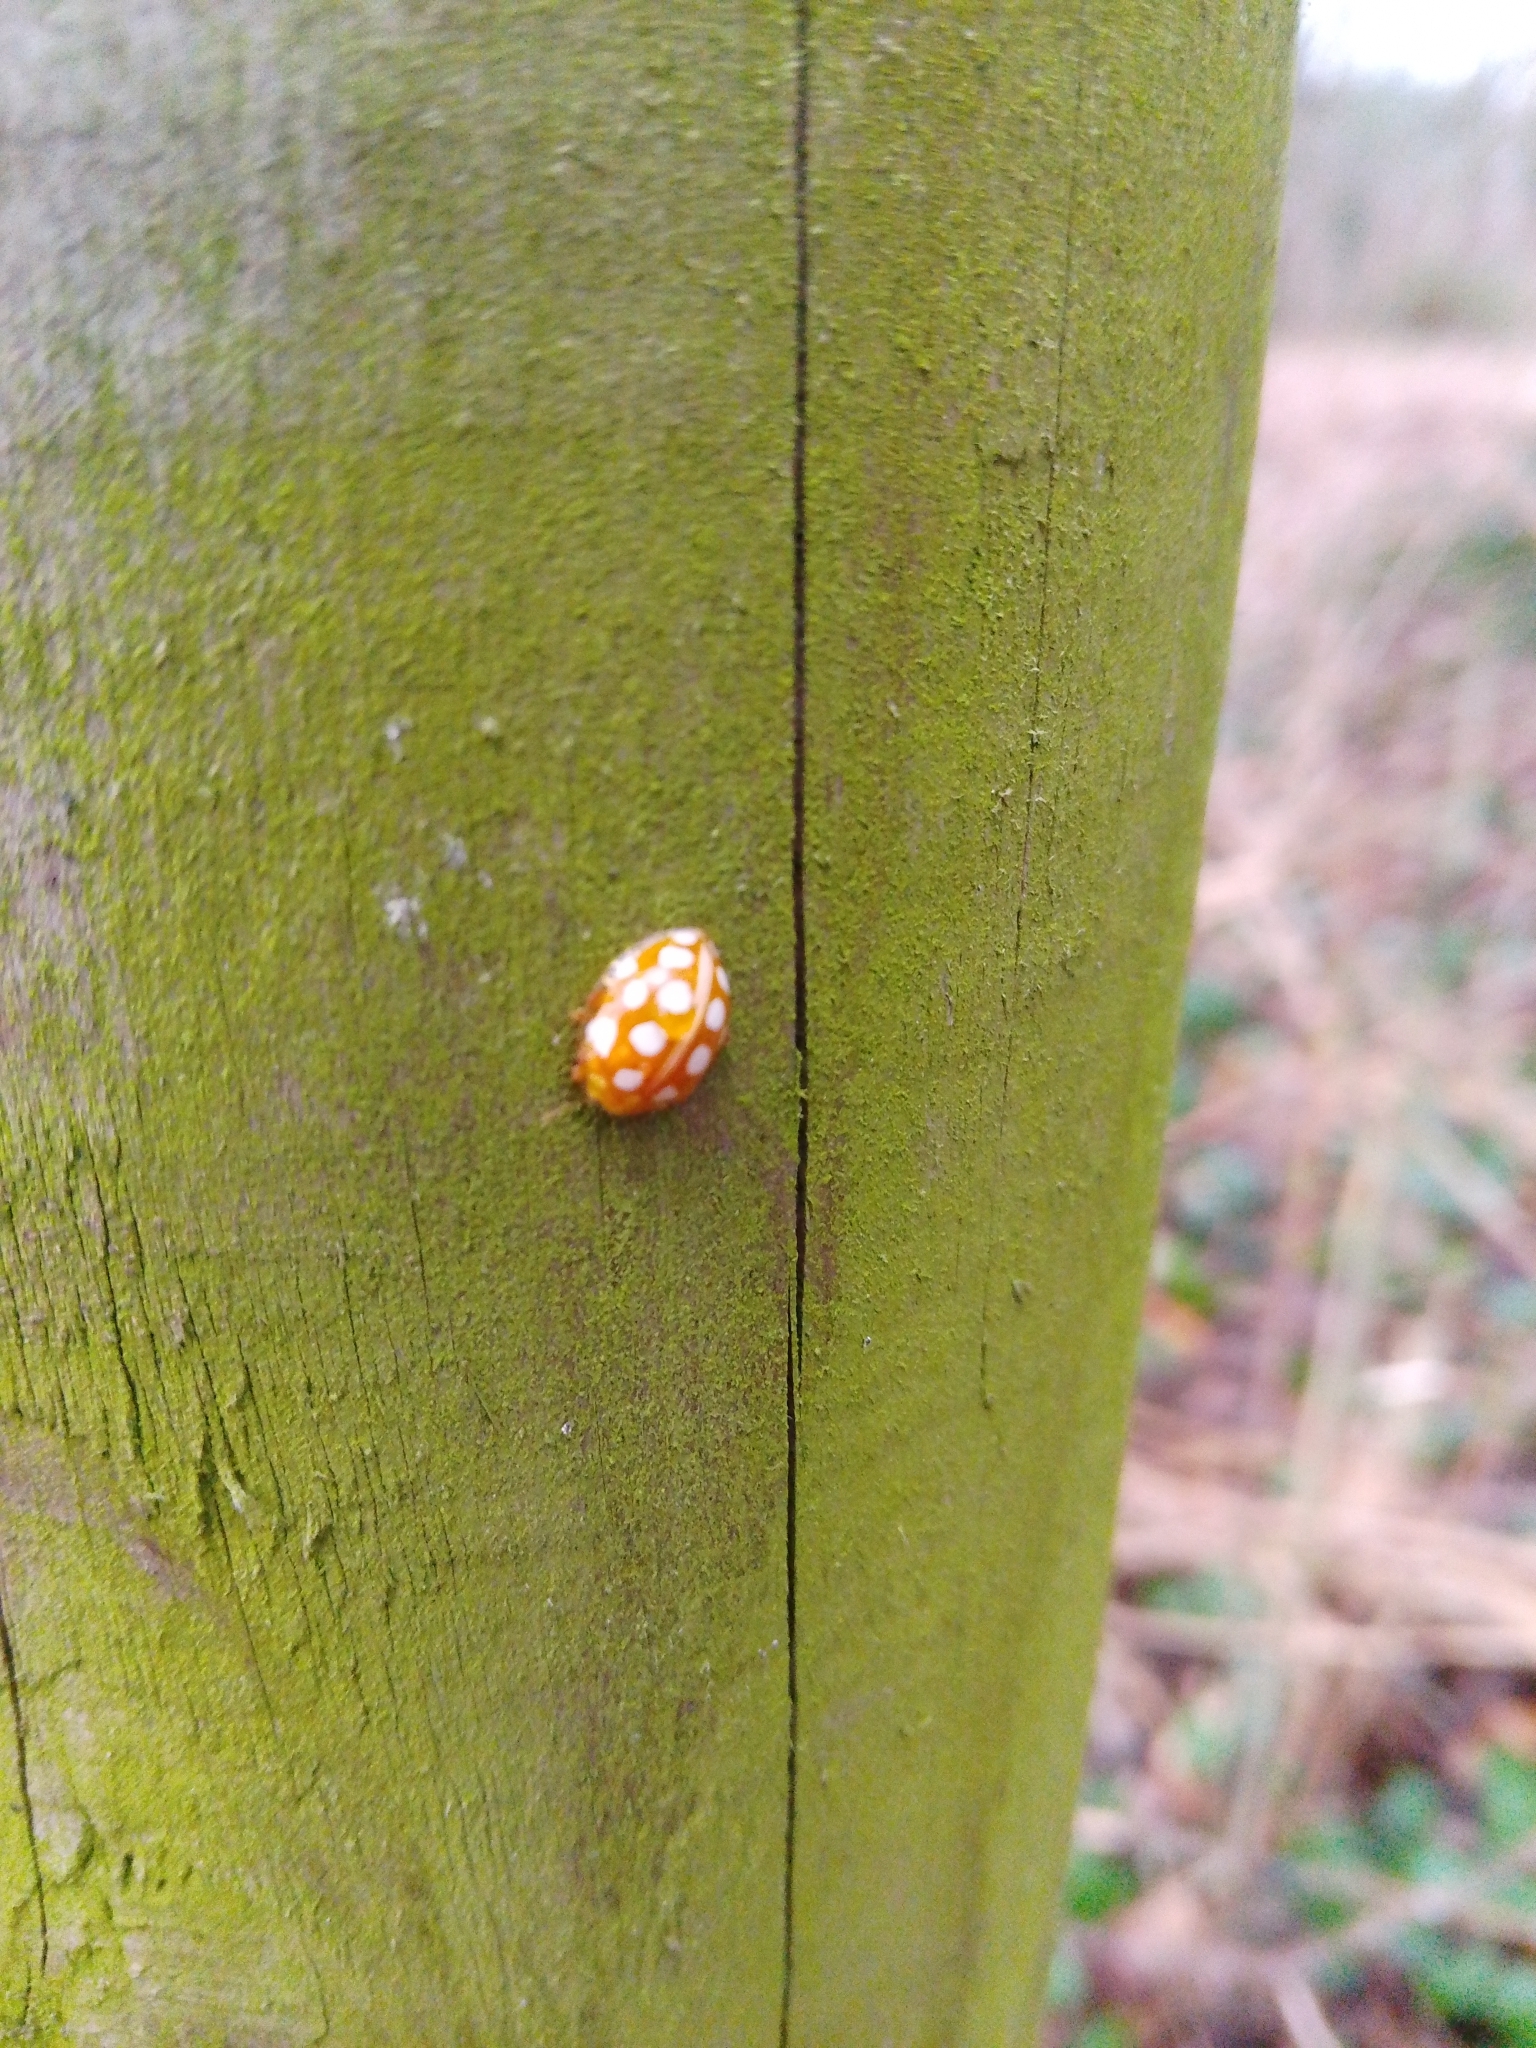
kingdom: Animalia
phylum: Arthropoda
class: Insecta
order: Coleoptera
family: Coccinellidae
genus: Halyzia
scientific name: Halyzia sedecimguttata
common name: Orange ladybird
